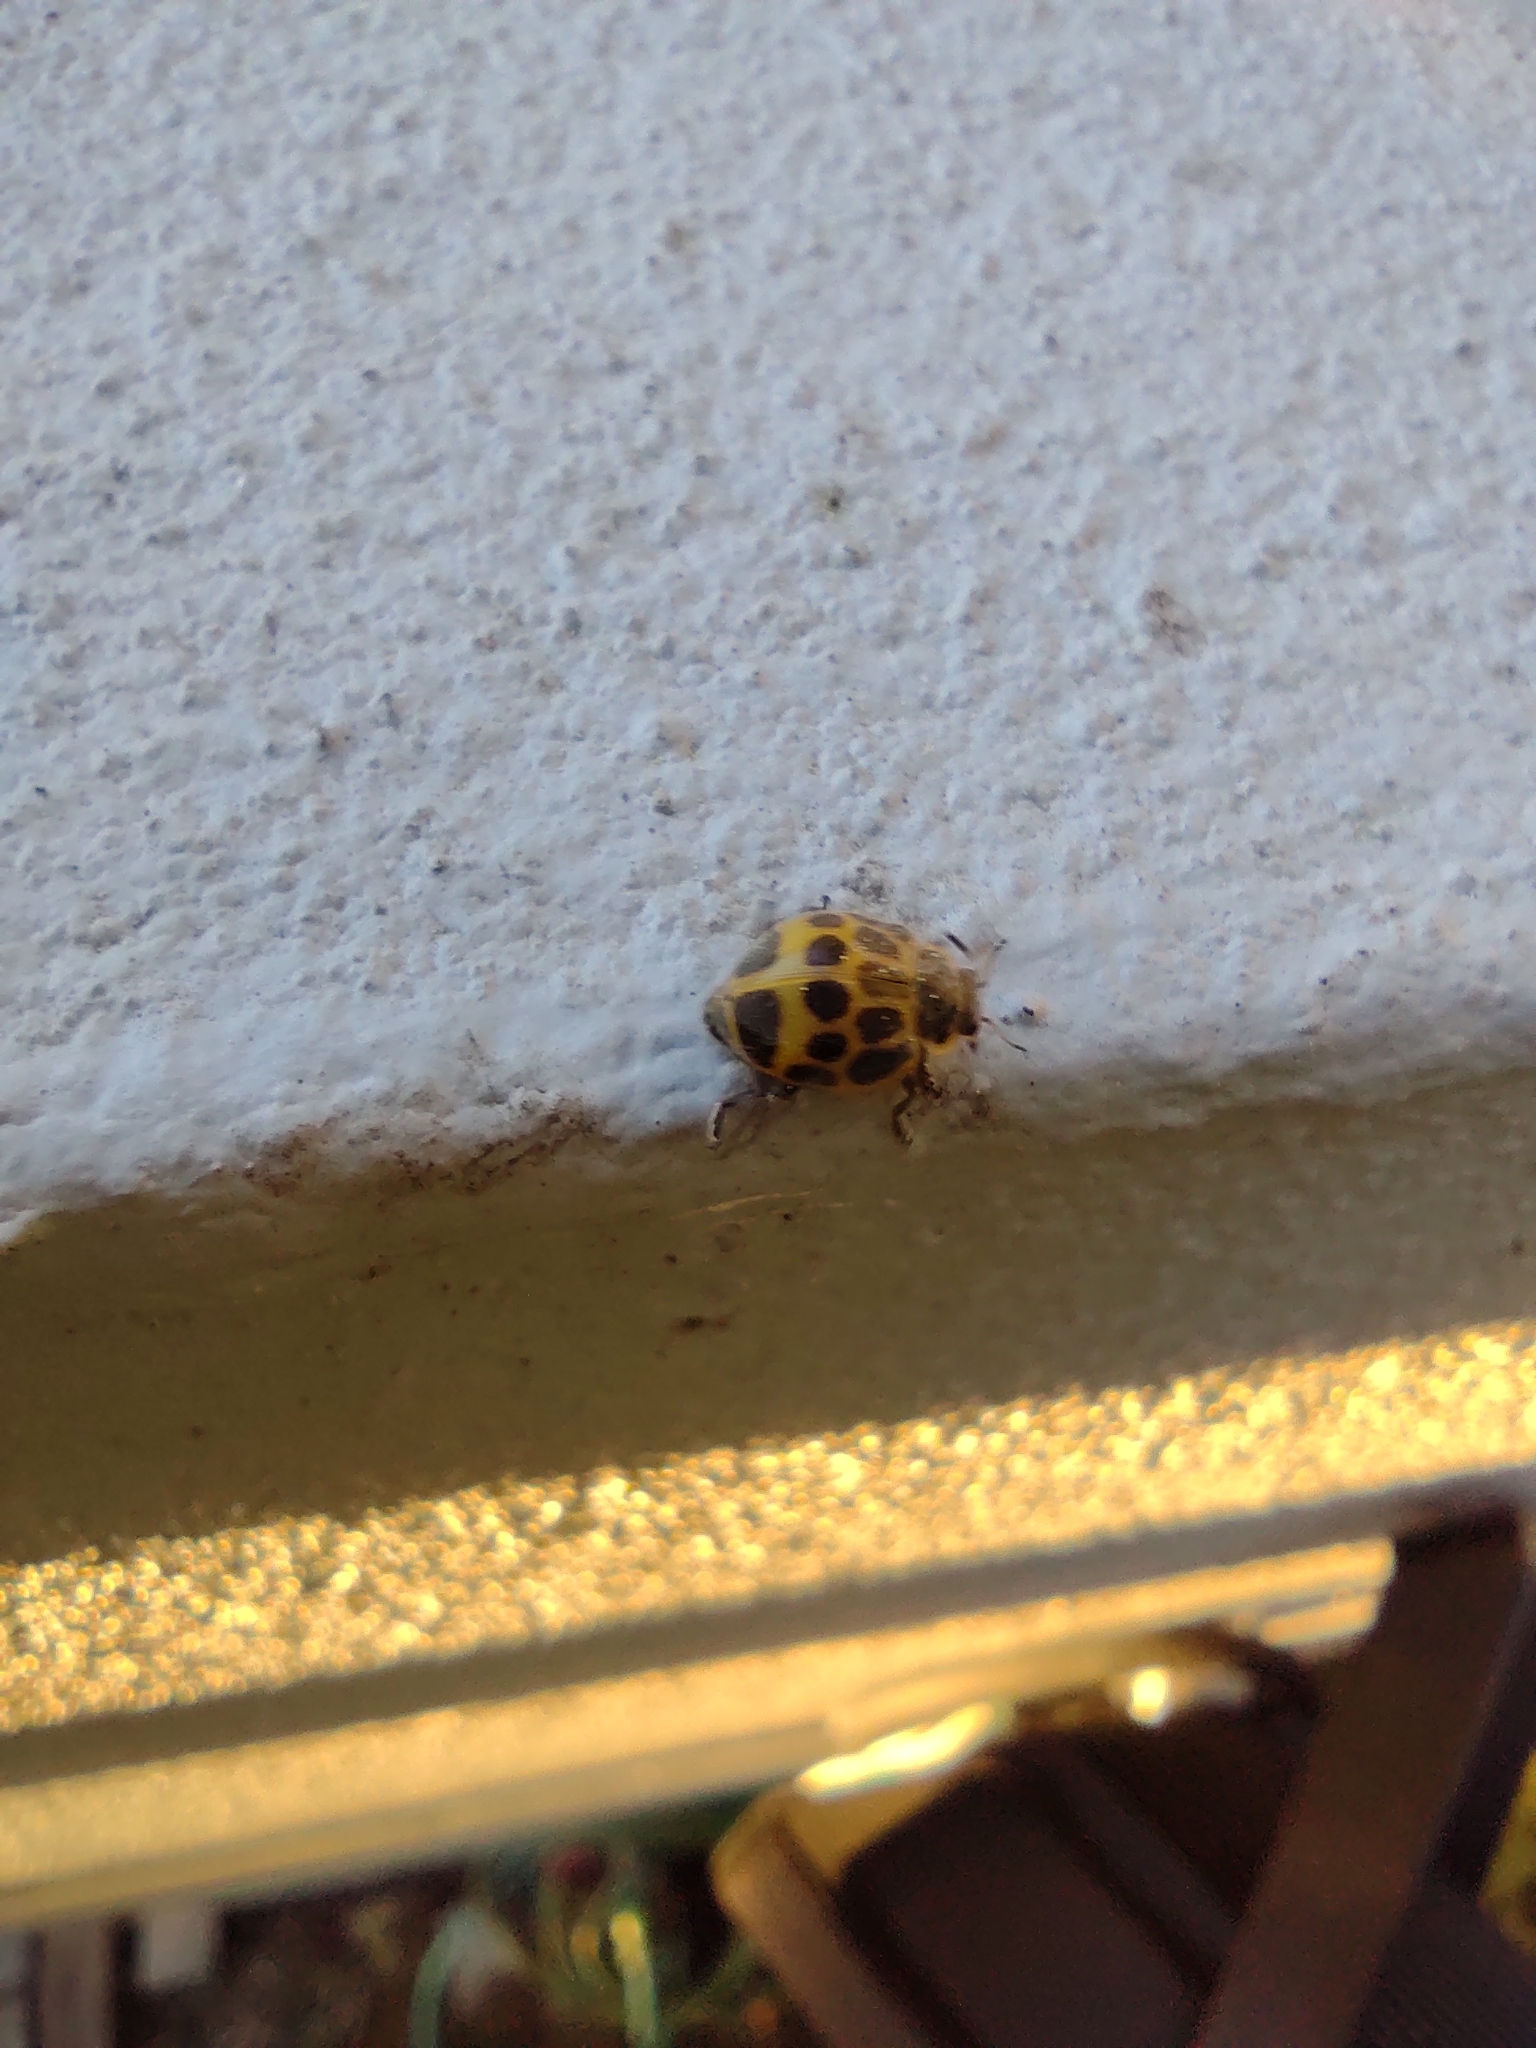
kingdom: Animalia
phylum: Arthropoda
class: Insecta
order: Coleoptera
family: Coccinellidae
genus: Epilachna
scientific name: Epilachna
